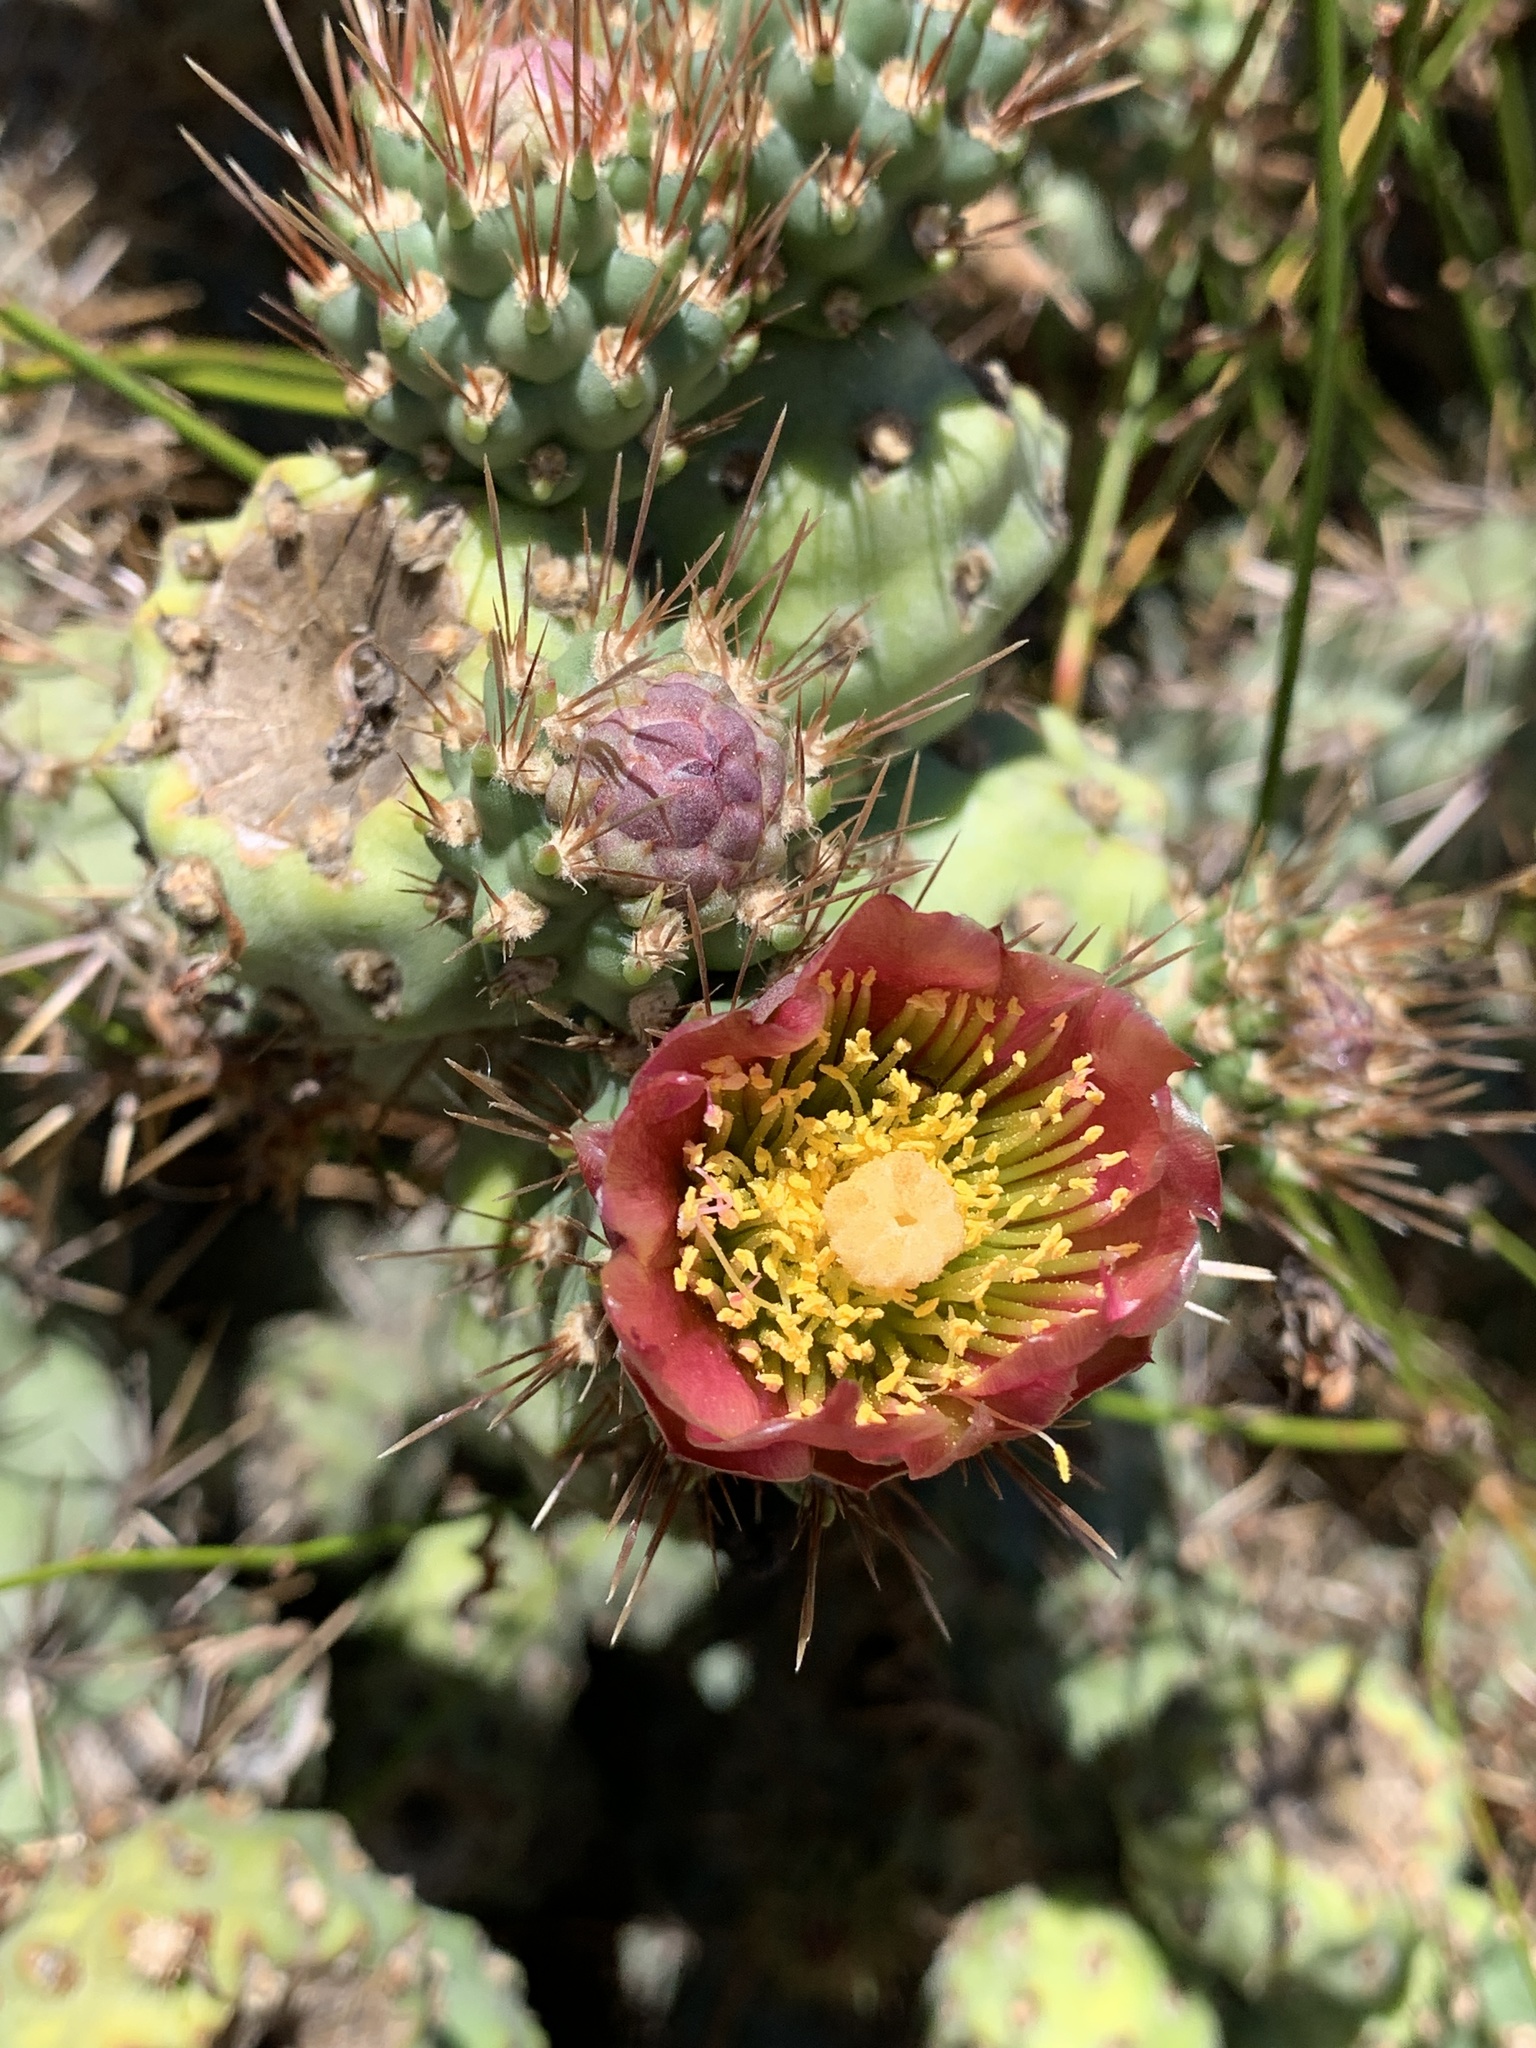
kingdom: Plantae
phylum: Tracheophyta
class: Magnoliopsida
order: Caryophyllales
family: Cactaceae
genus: Cylindropuntia
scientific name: Cylindropuntia prolifera
